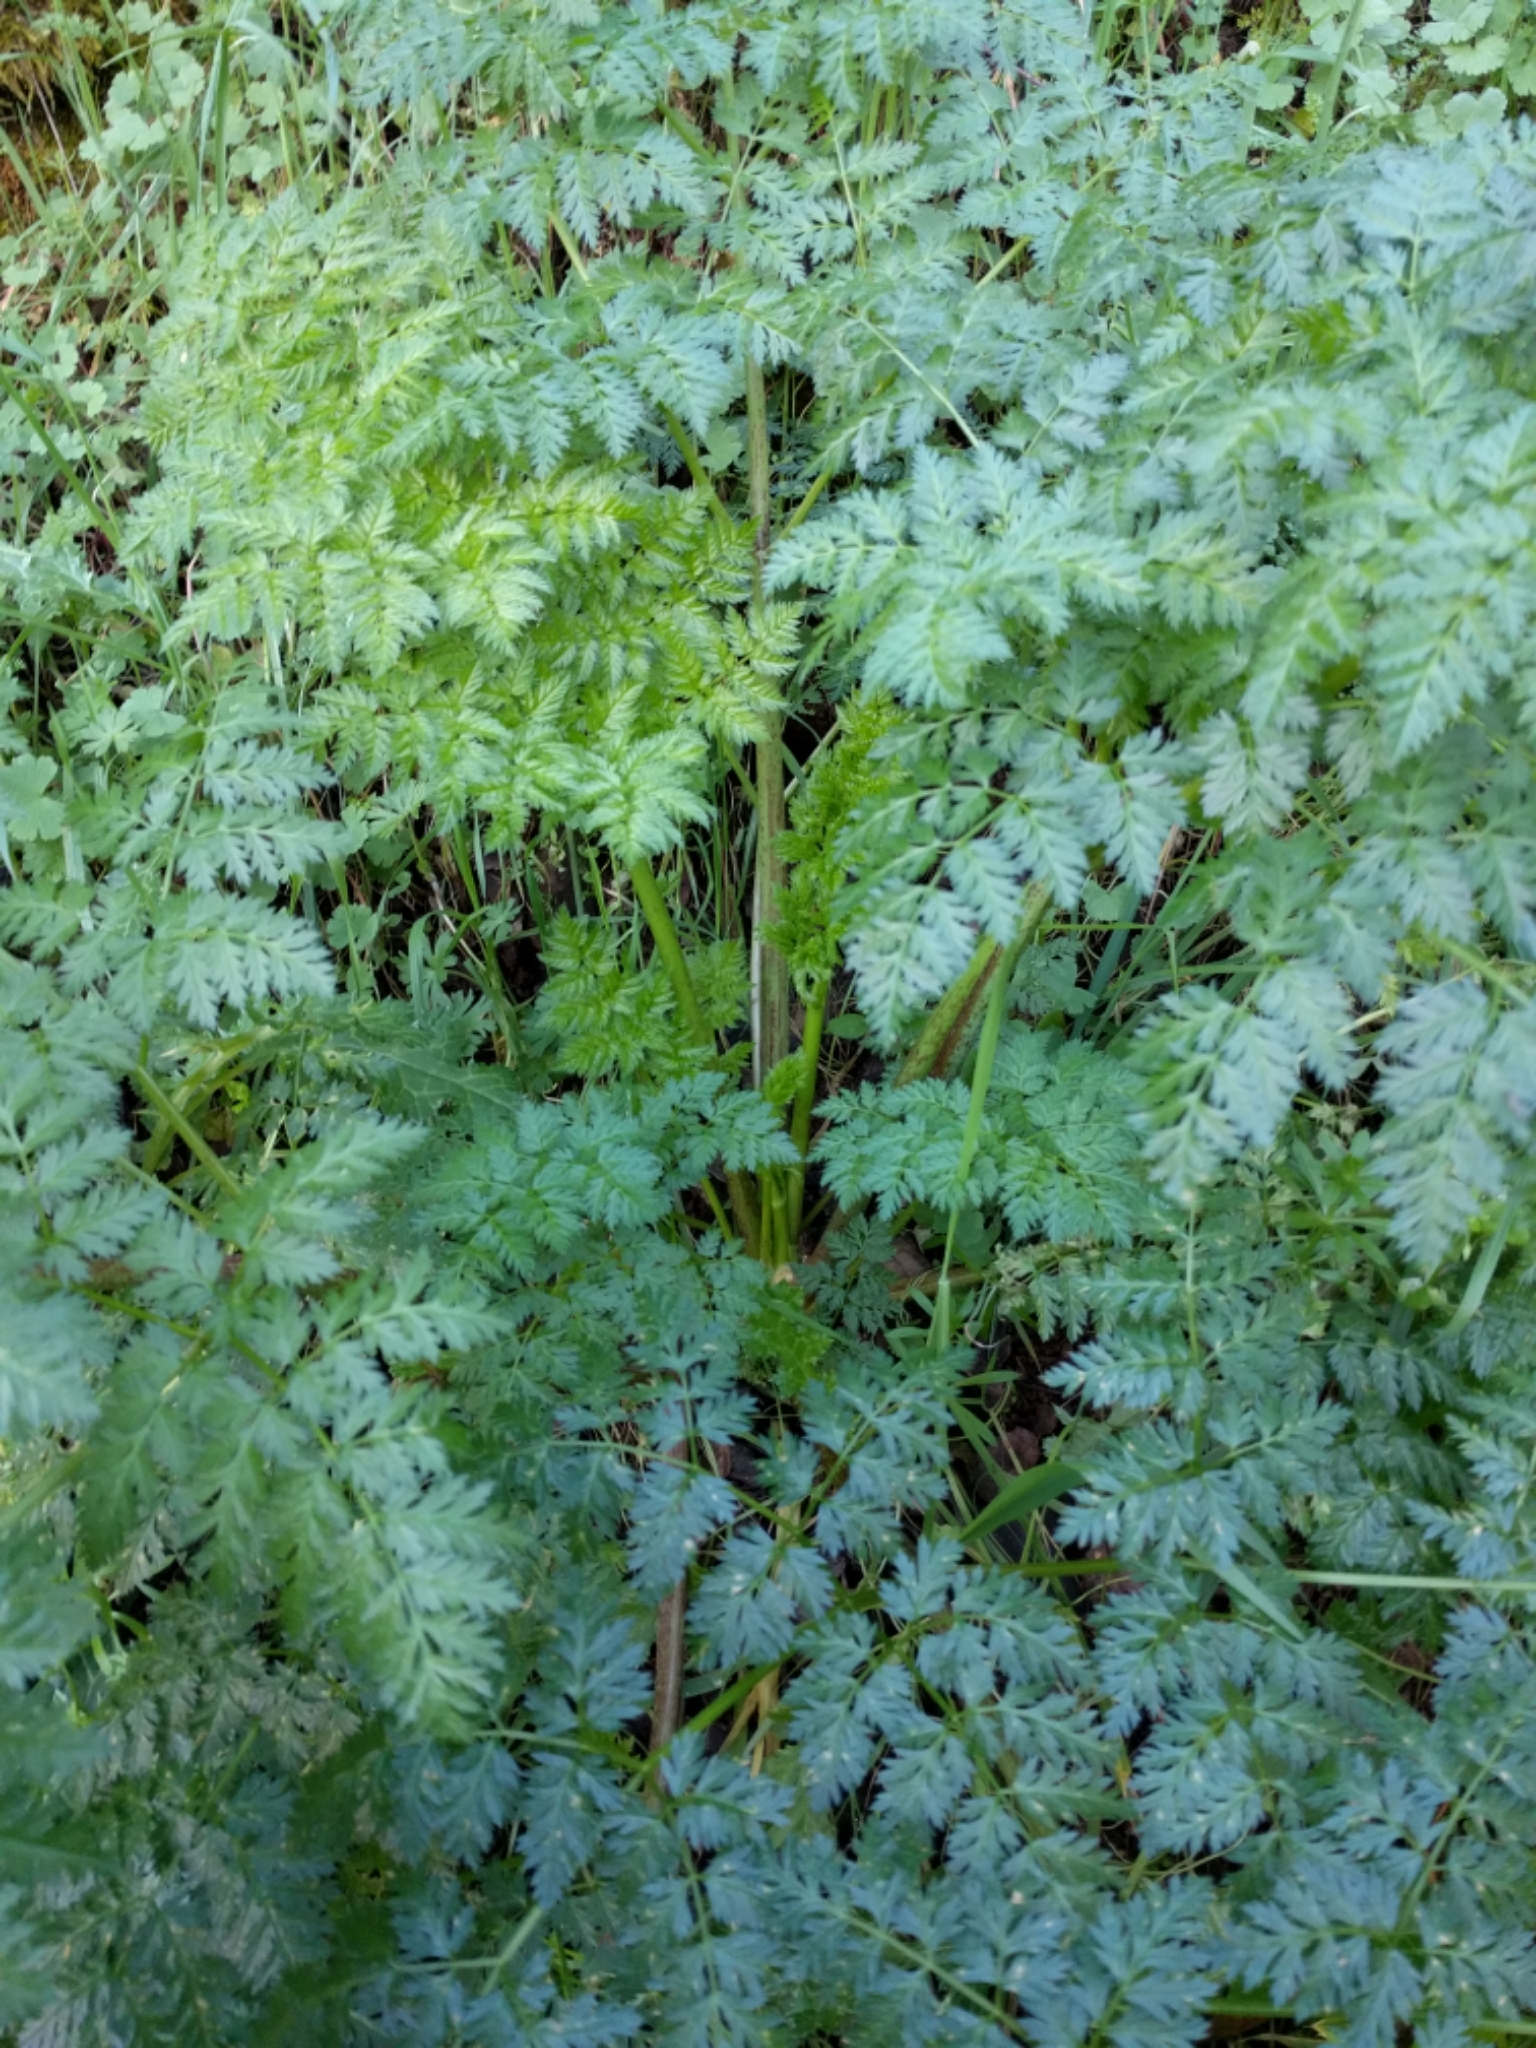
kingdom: Plantae
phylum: Tracheophyta
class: Magnoliopsida
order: Apiales
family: Apiaceae
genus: Conium
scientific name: Conium maculatum
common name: Hemlock
